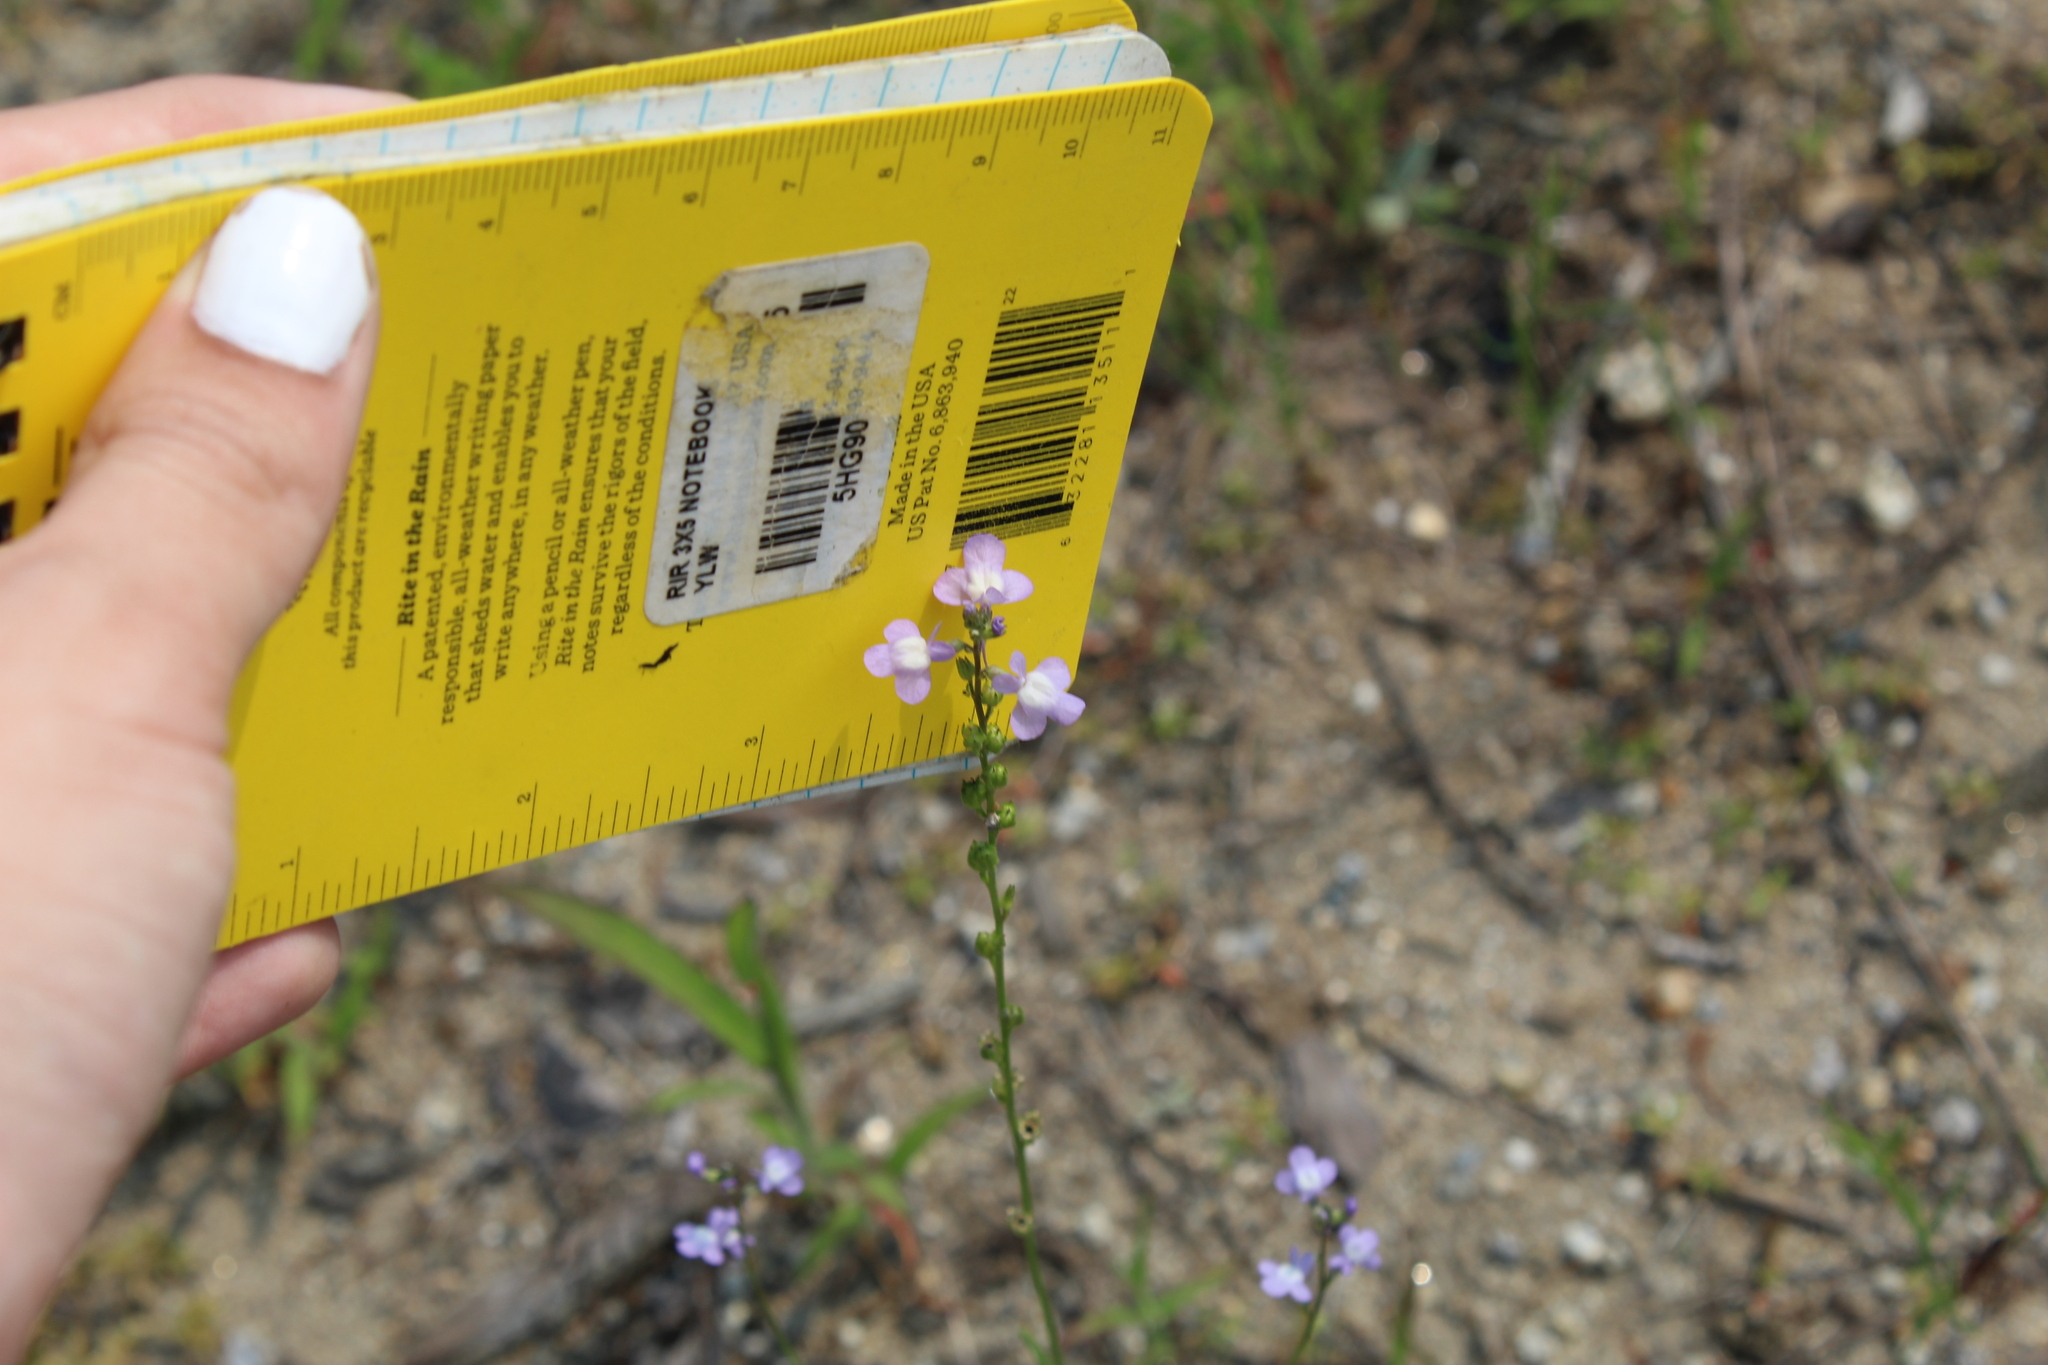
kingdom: Plantae
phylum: Tracheophyta
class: Magnoliopsida
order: Lamiales
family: Plantaginaceae
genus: Nuttallanthus
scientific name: Nuttallanthus canadensis
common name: Blue toadflax
